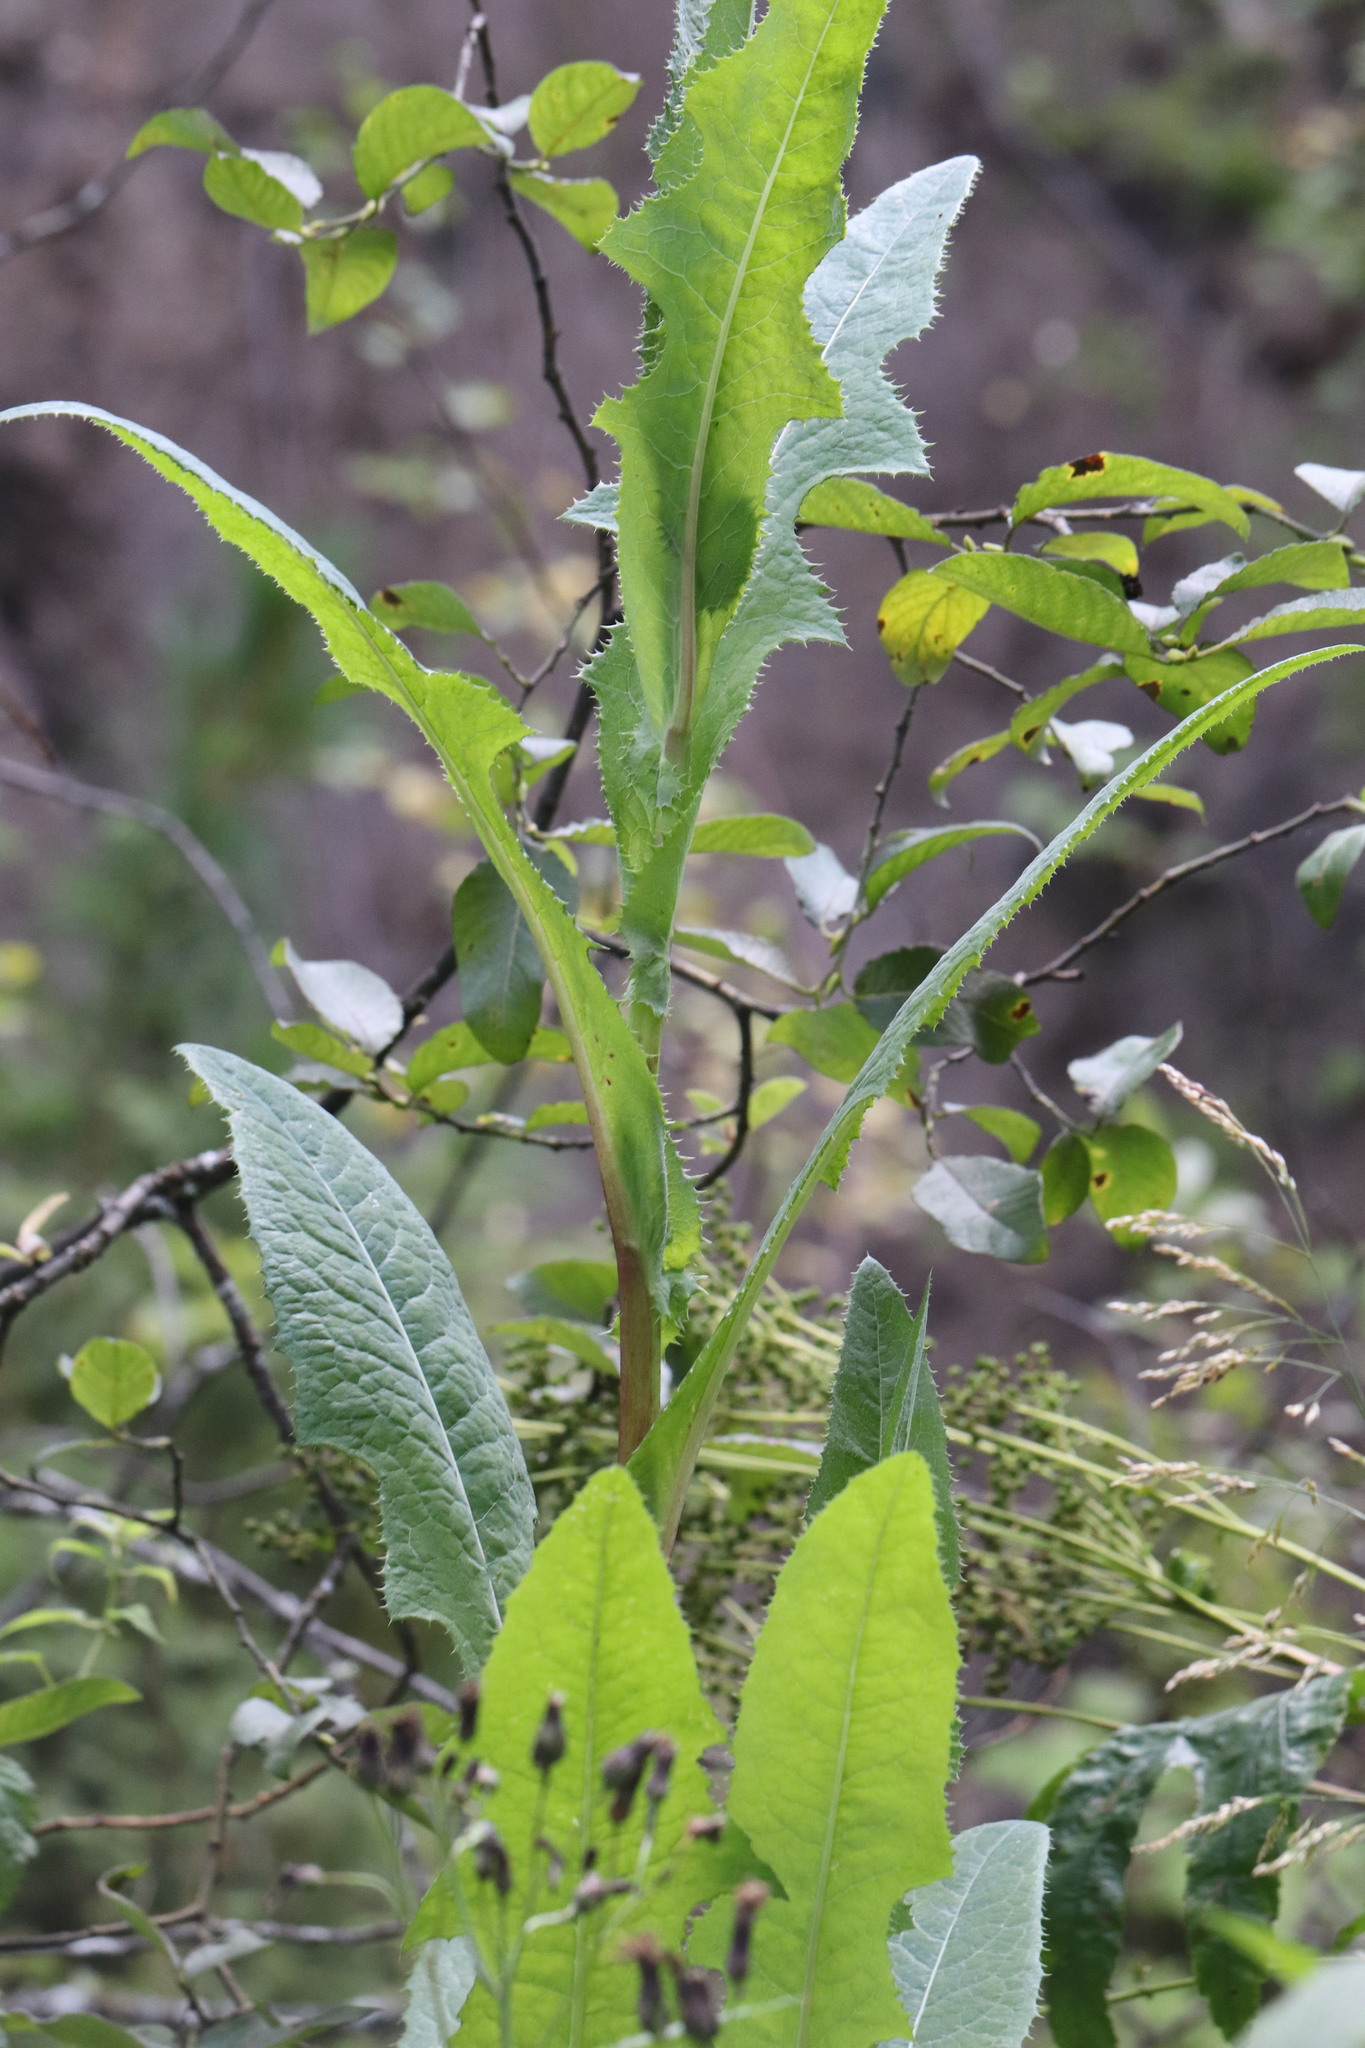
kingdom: Plantae
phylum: Tracheophyta
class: Magnoliopsida
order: Asterales
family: Asteraceae
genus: Sonchus
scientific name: Sonchus arvensis
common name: Perennial sow-thistle
